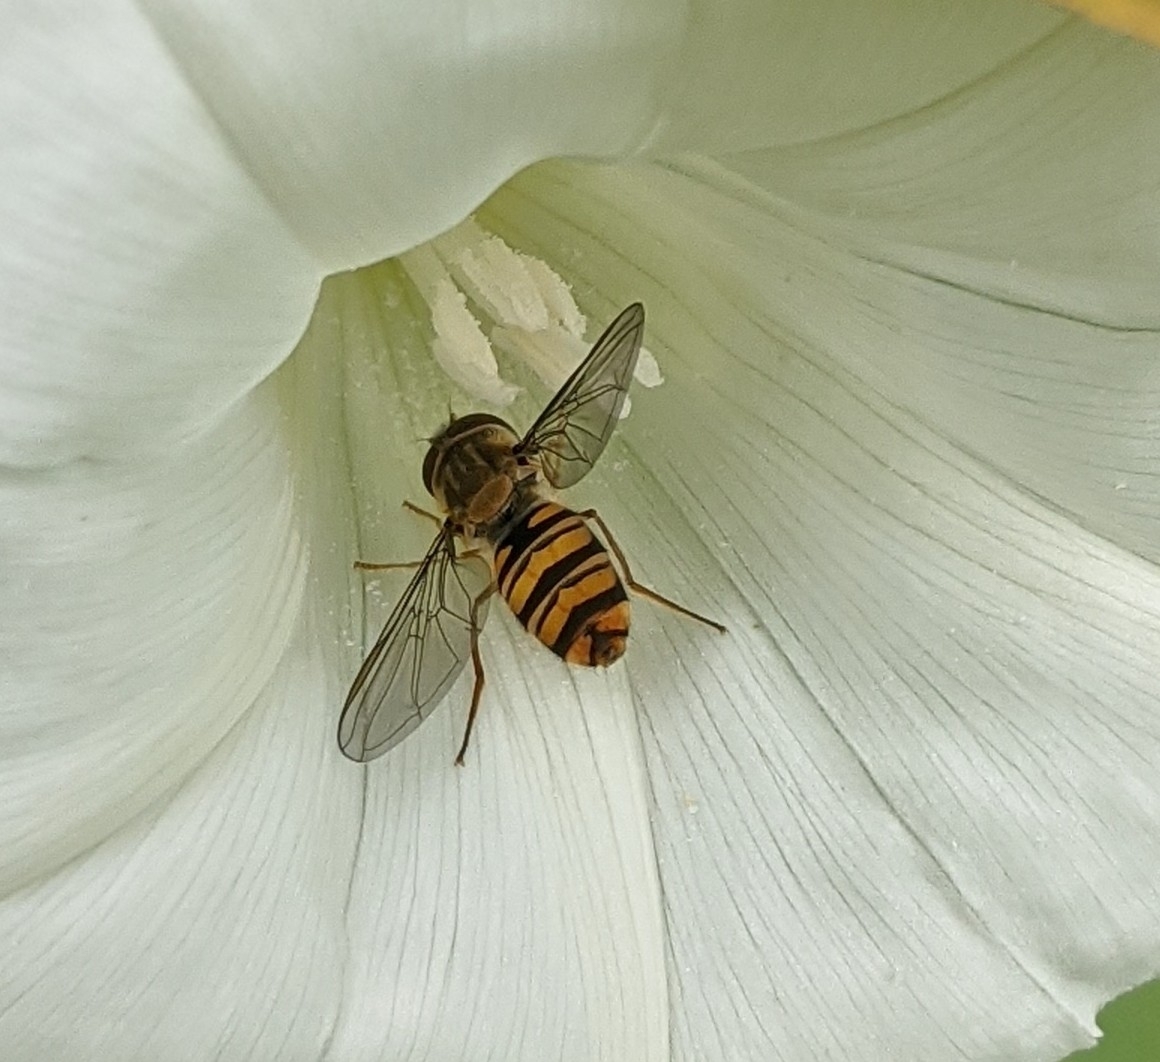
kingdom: Animalia
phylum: Arthropoda
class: Insecta
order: Diptera
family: Syrphidae
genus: Episyrphus
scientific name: Episyrphus balteatus
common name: Marmalade hoverfly
